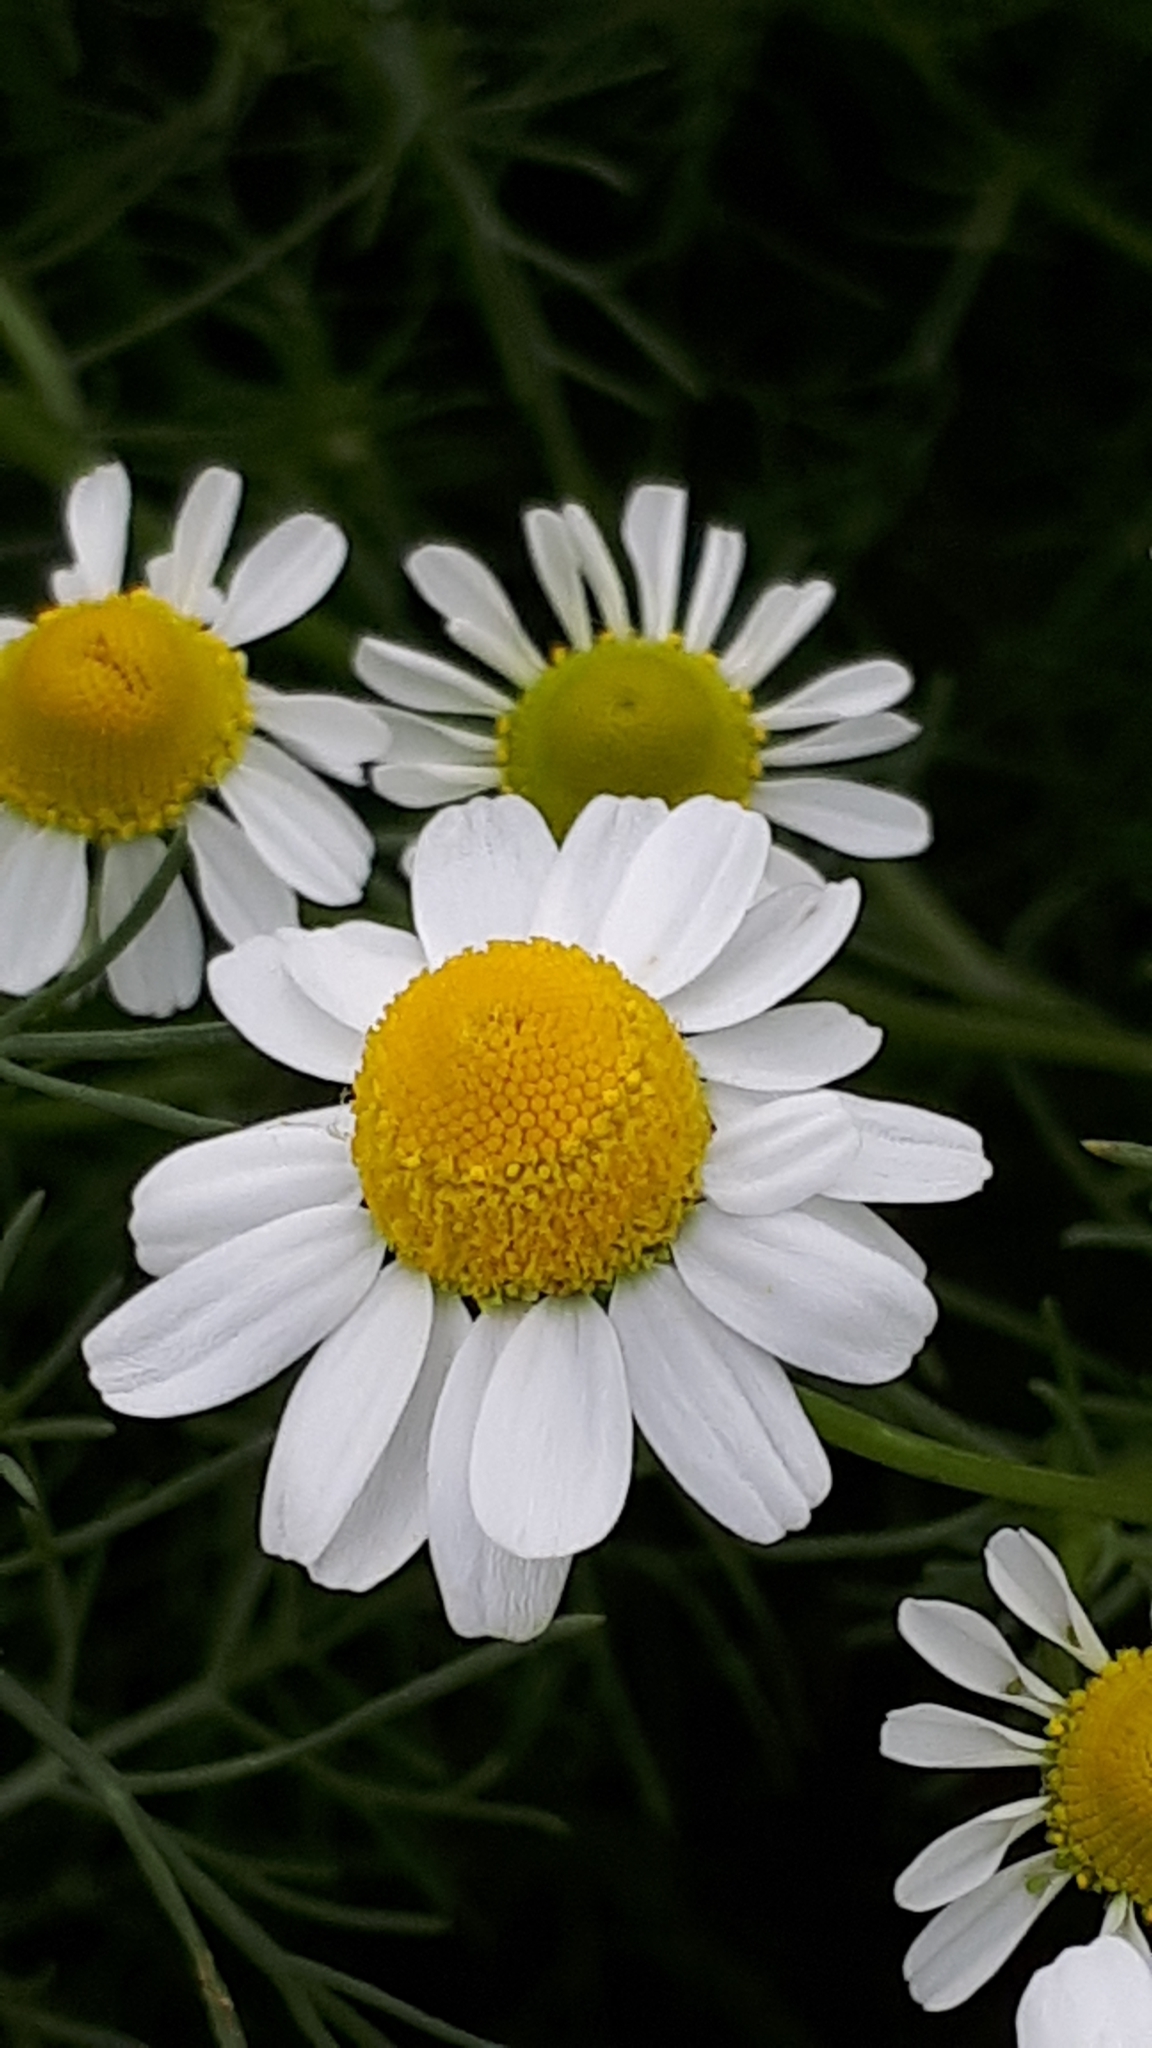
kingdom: Plantae
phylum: Tracheophyta
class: Magnoliopsida
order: Asterales
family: Asteraceae
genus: Matricaria
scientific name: Matricaria chamomilla
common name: Scented mayweed
